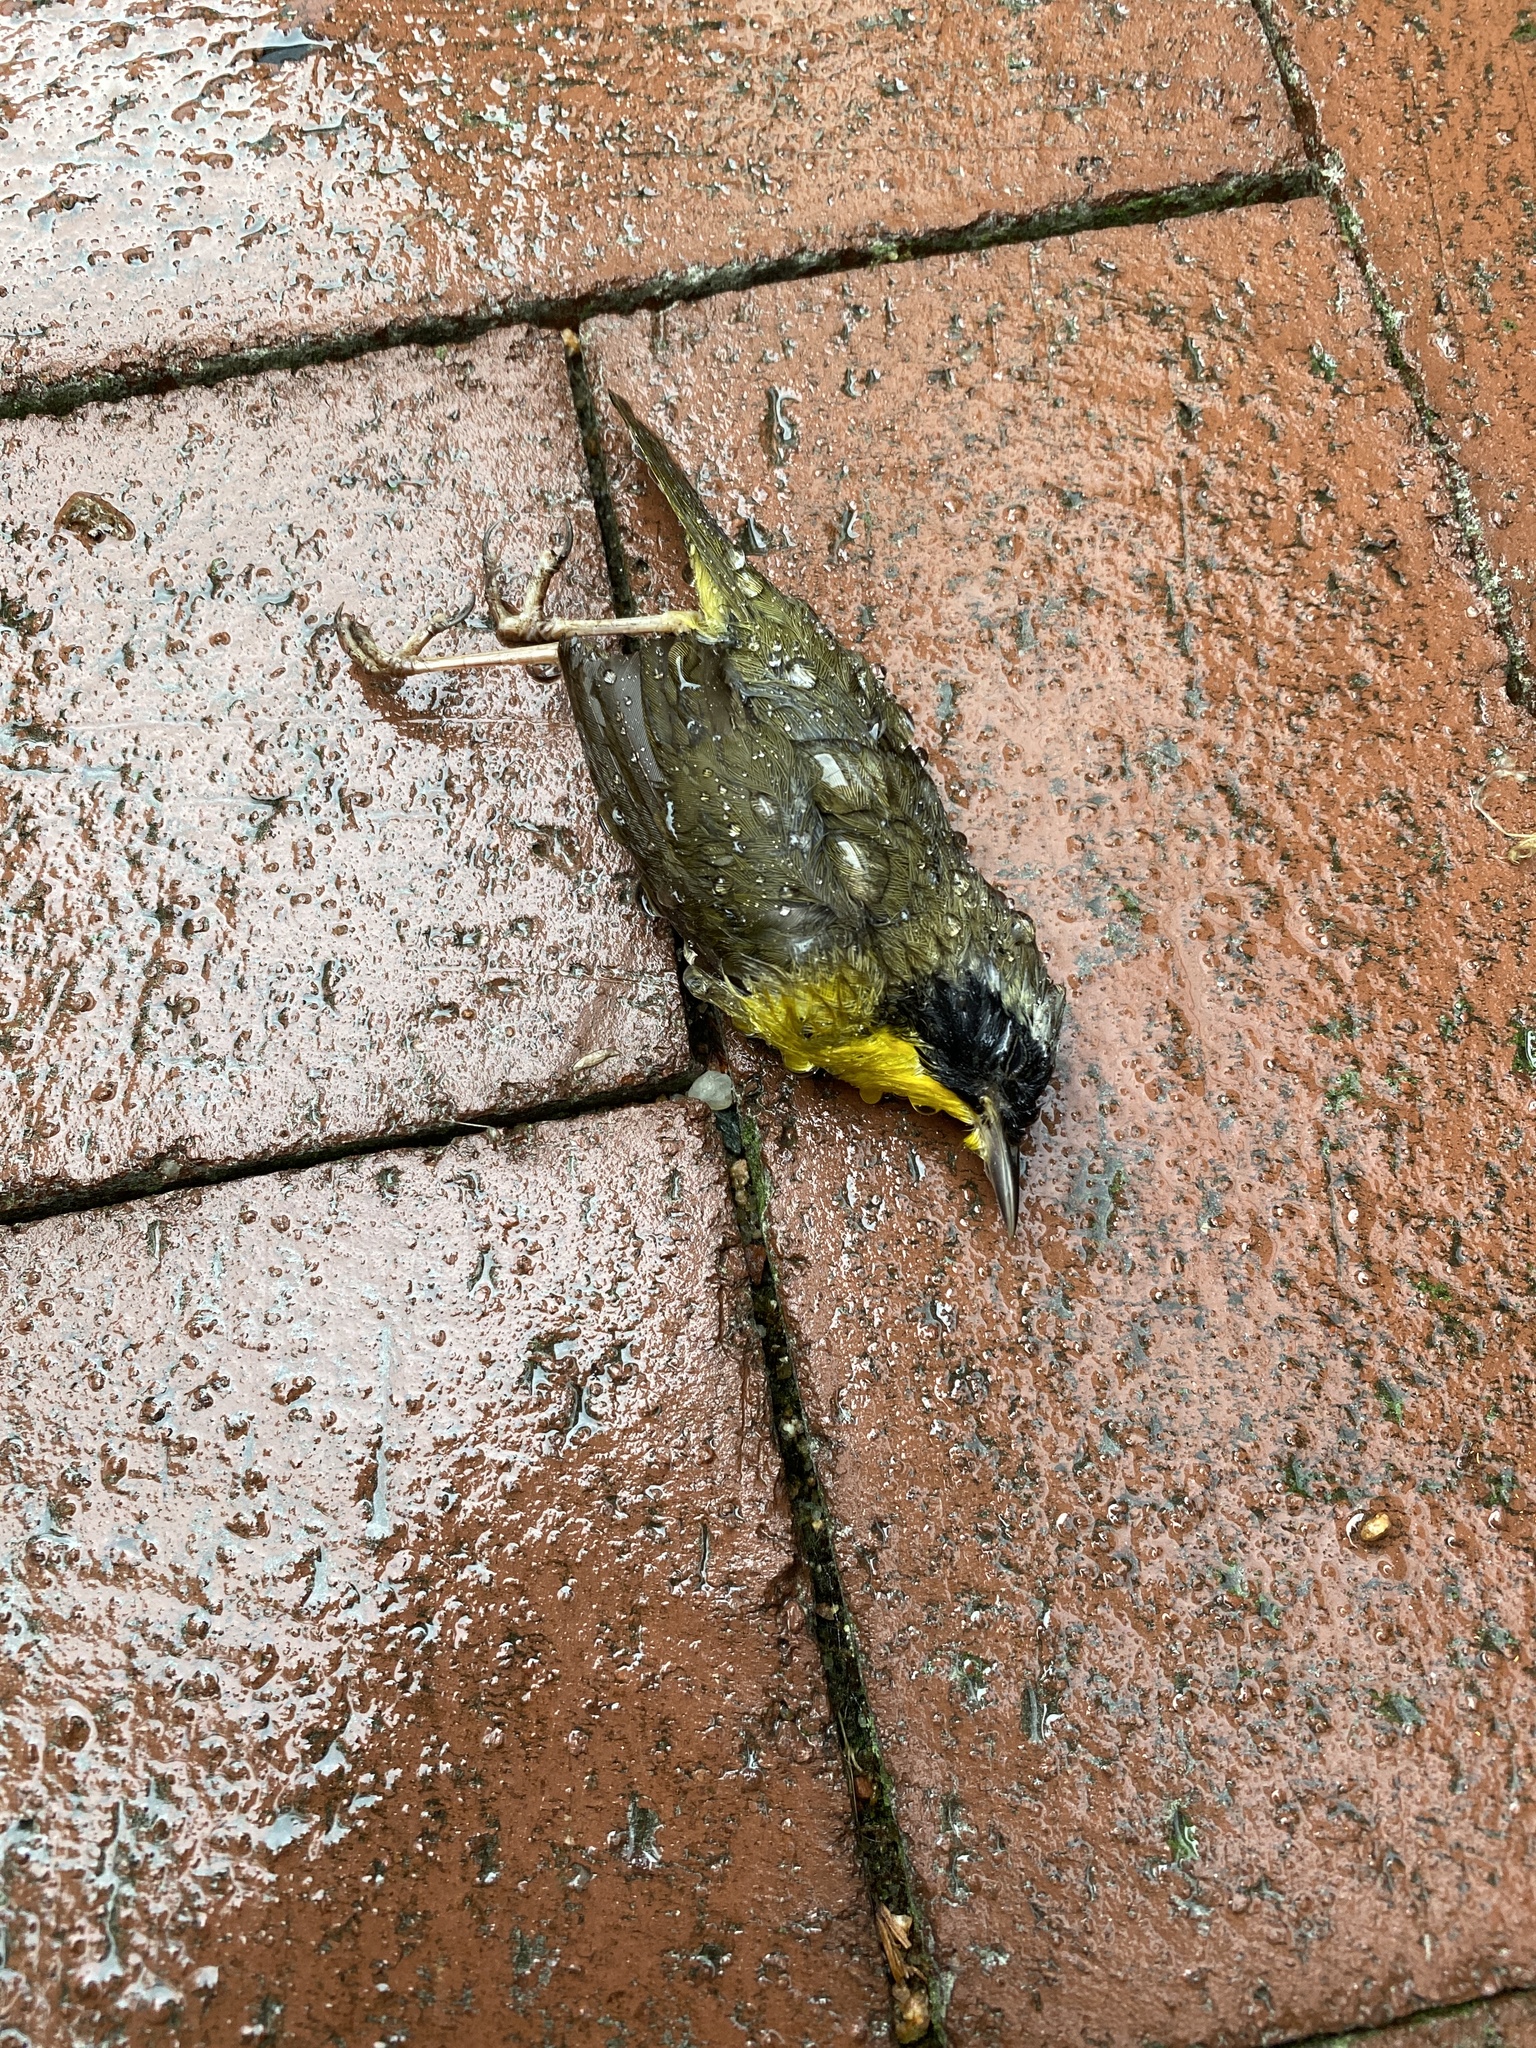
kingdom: Animalia
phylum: Chordata
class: Aves
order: Passeriformes
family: Parulidae
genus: Geothlypis
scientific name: Geothlypis trichas
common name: Common yellowthroat
